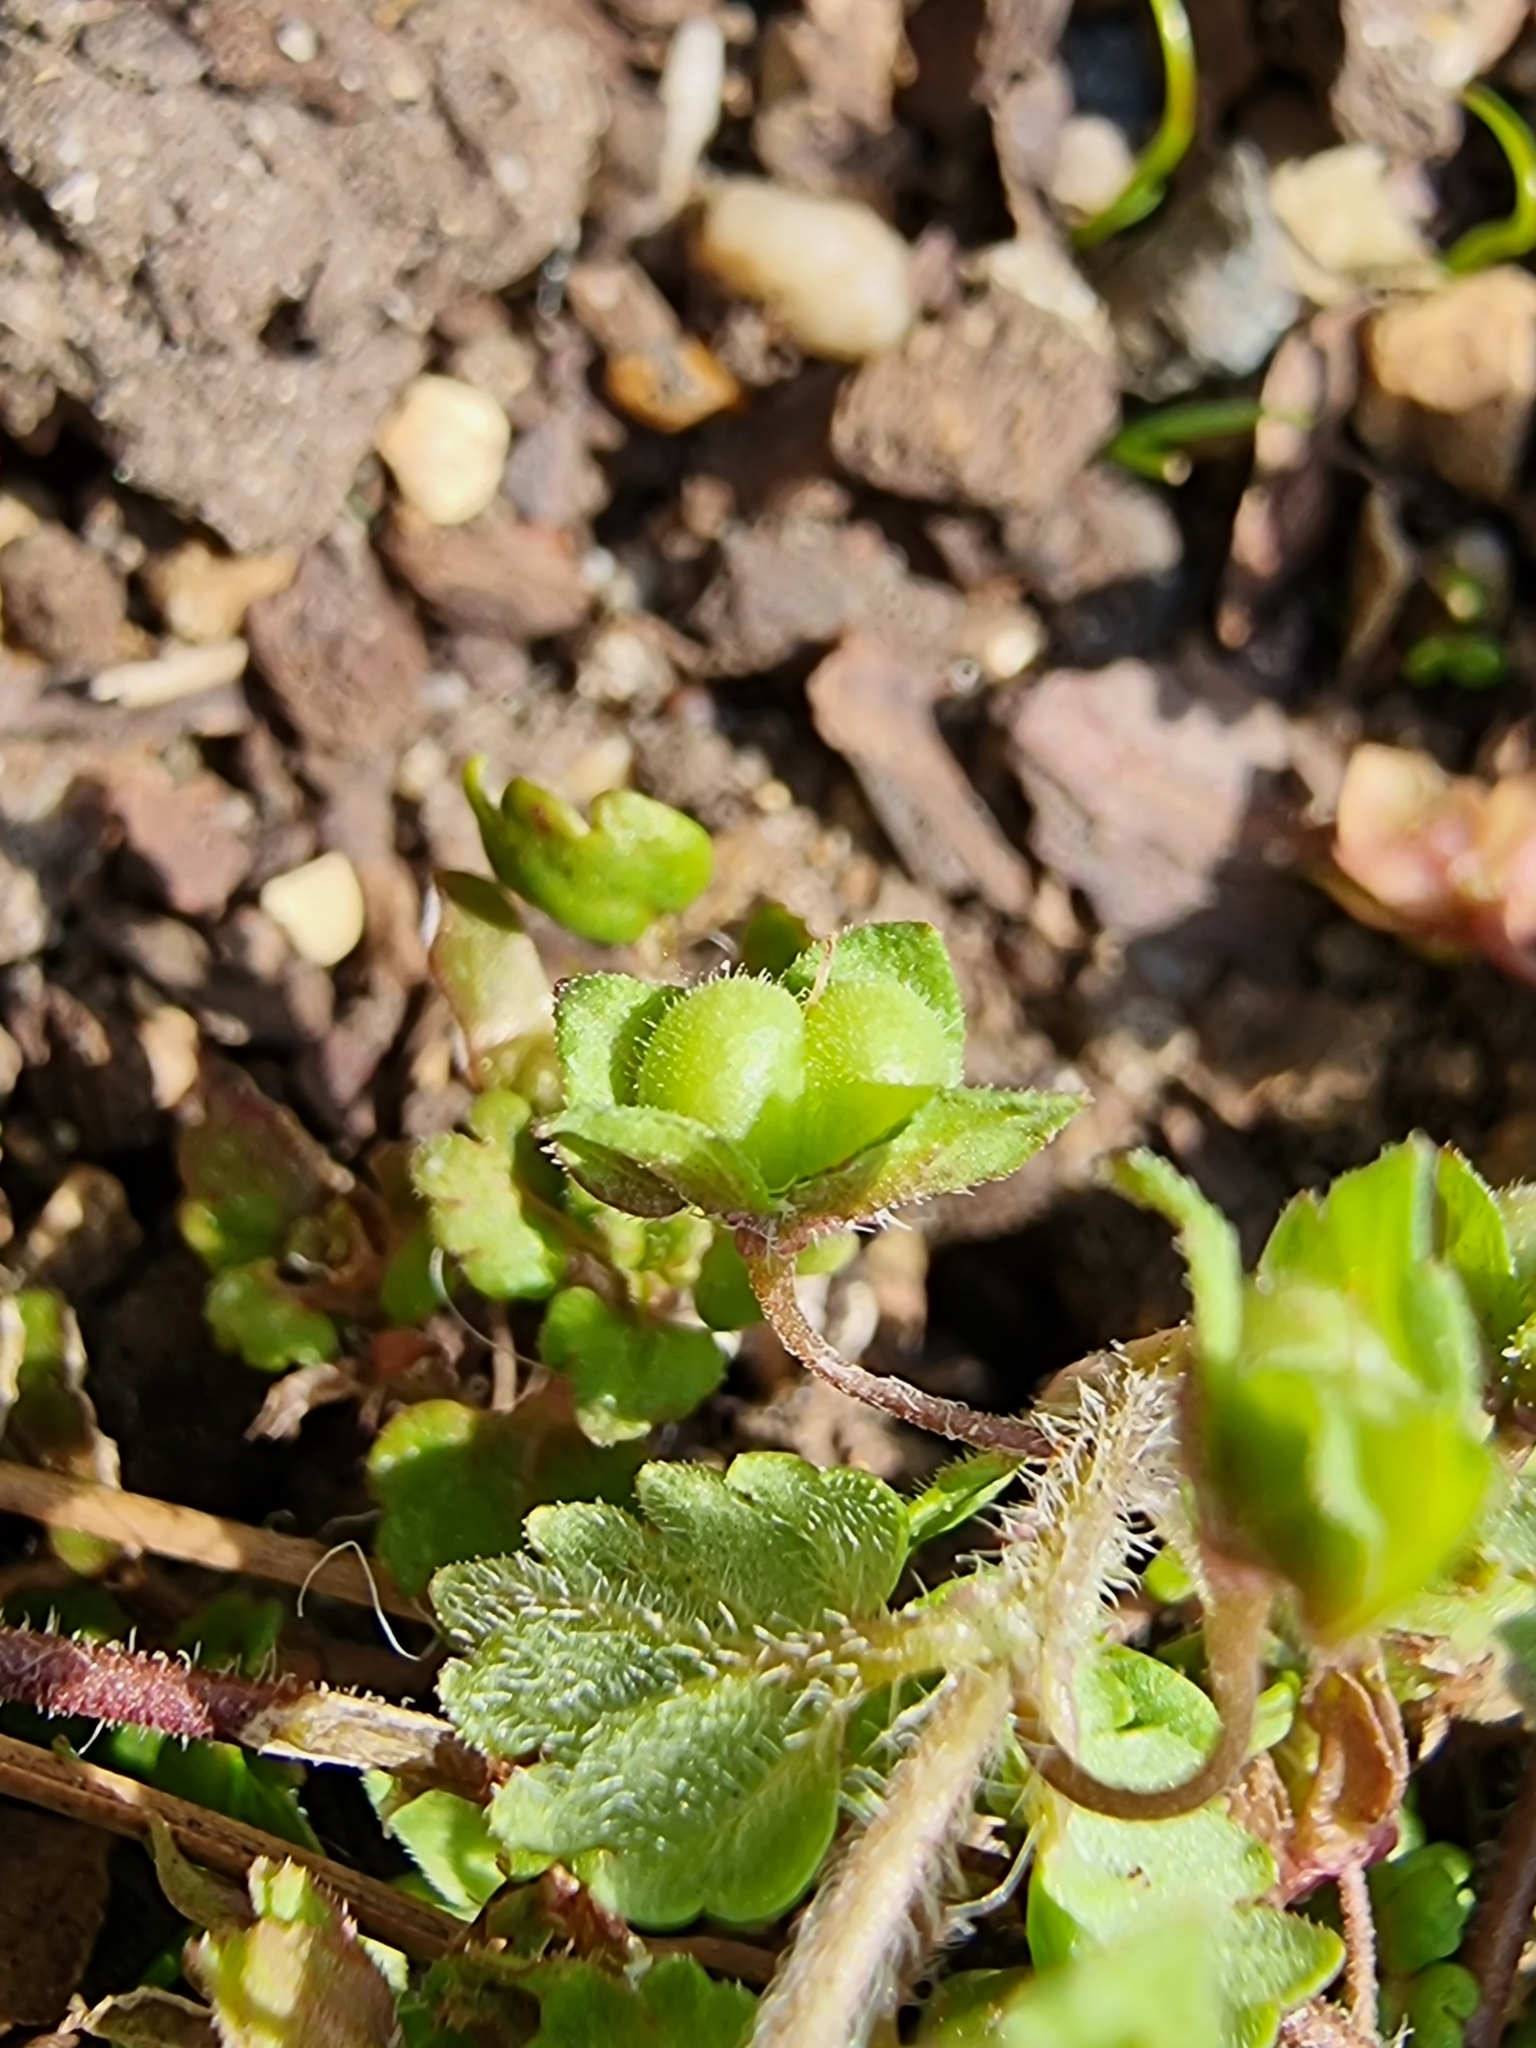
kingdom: Plantae
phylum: Tracheophyta
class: Magnoliopsida
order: Lamiales
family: Plantaginaceae
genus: Veronica
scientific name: Veronica polita
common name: Grey field-speedwell
